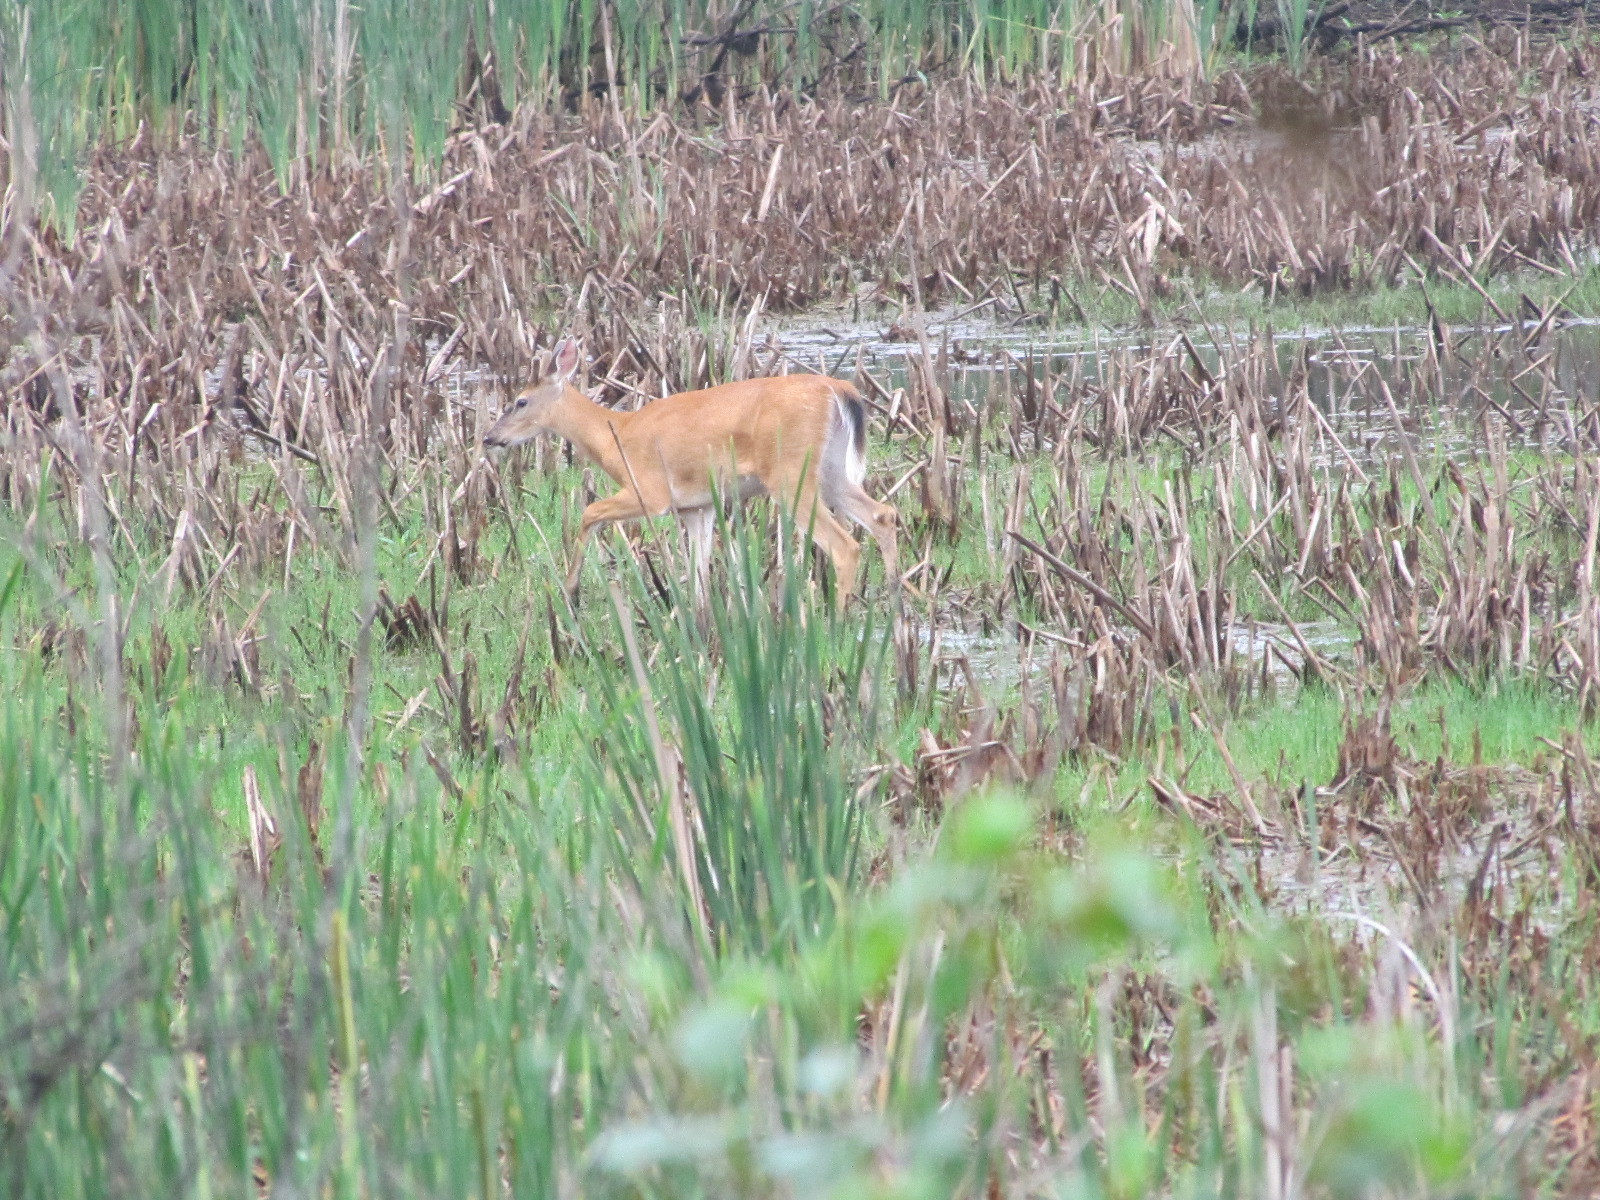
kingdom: Animalia
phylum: Chordata
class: Mammalia
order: Artiodactyla
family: Cervidae
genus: Odocoileus
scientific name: Odocoileus virginianus
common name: White-tailed deer
